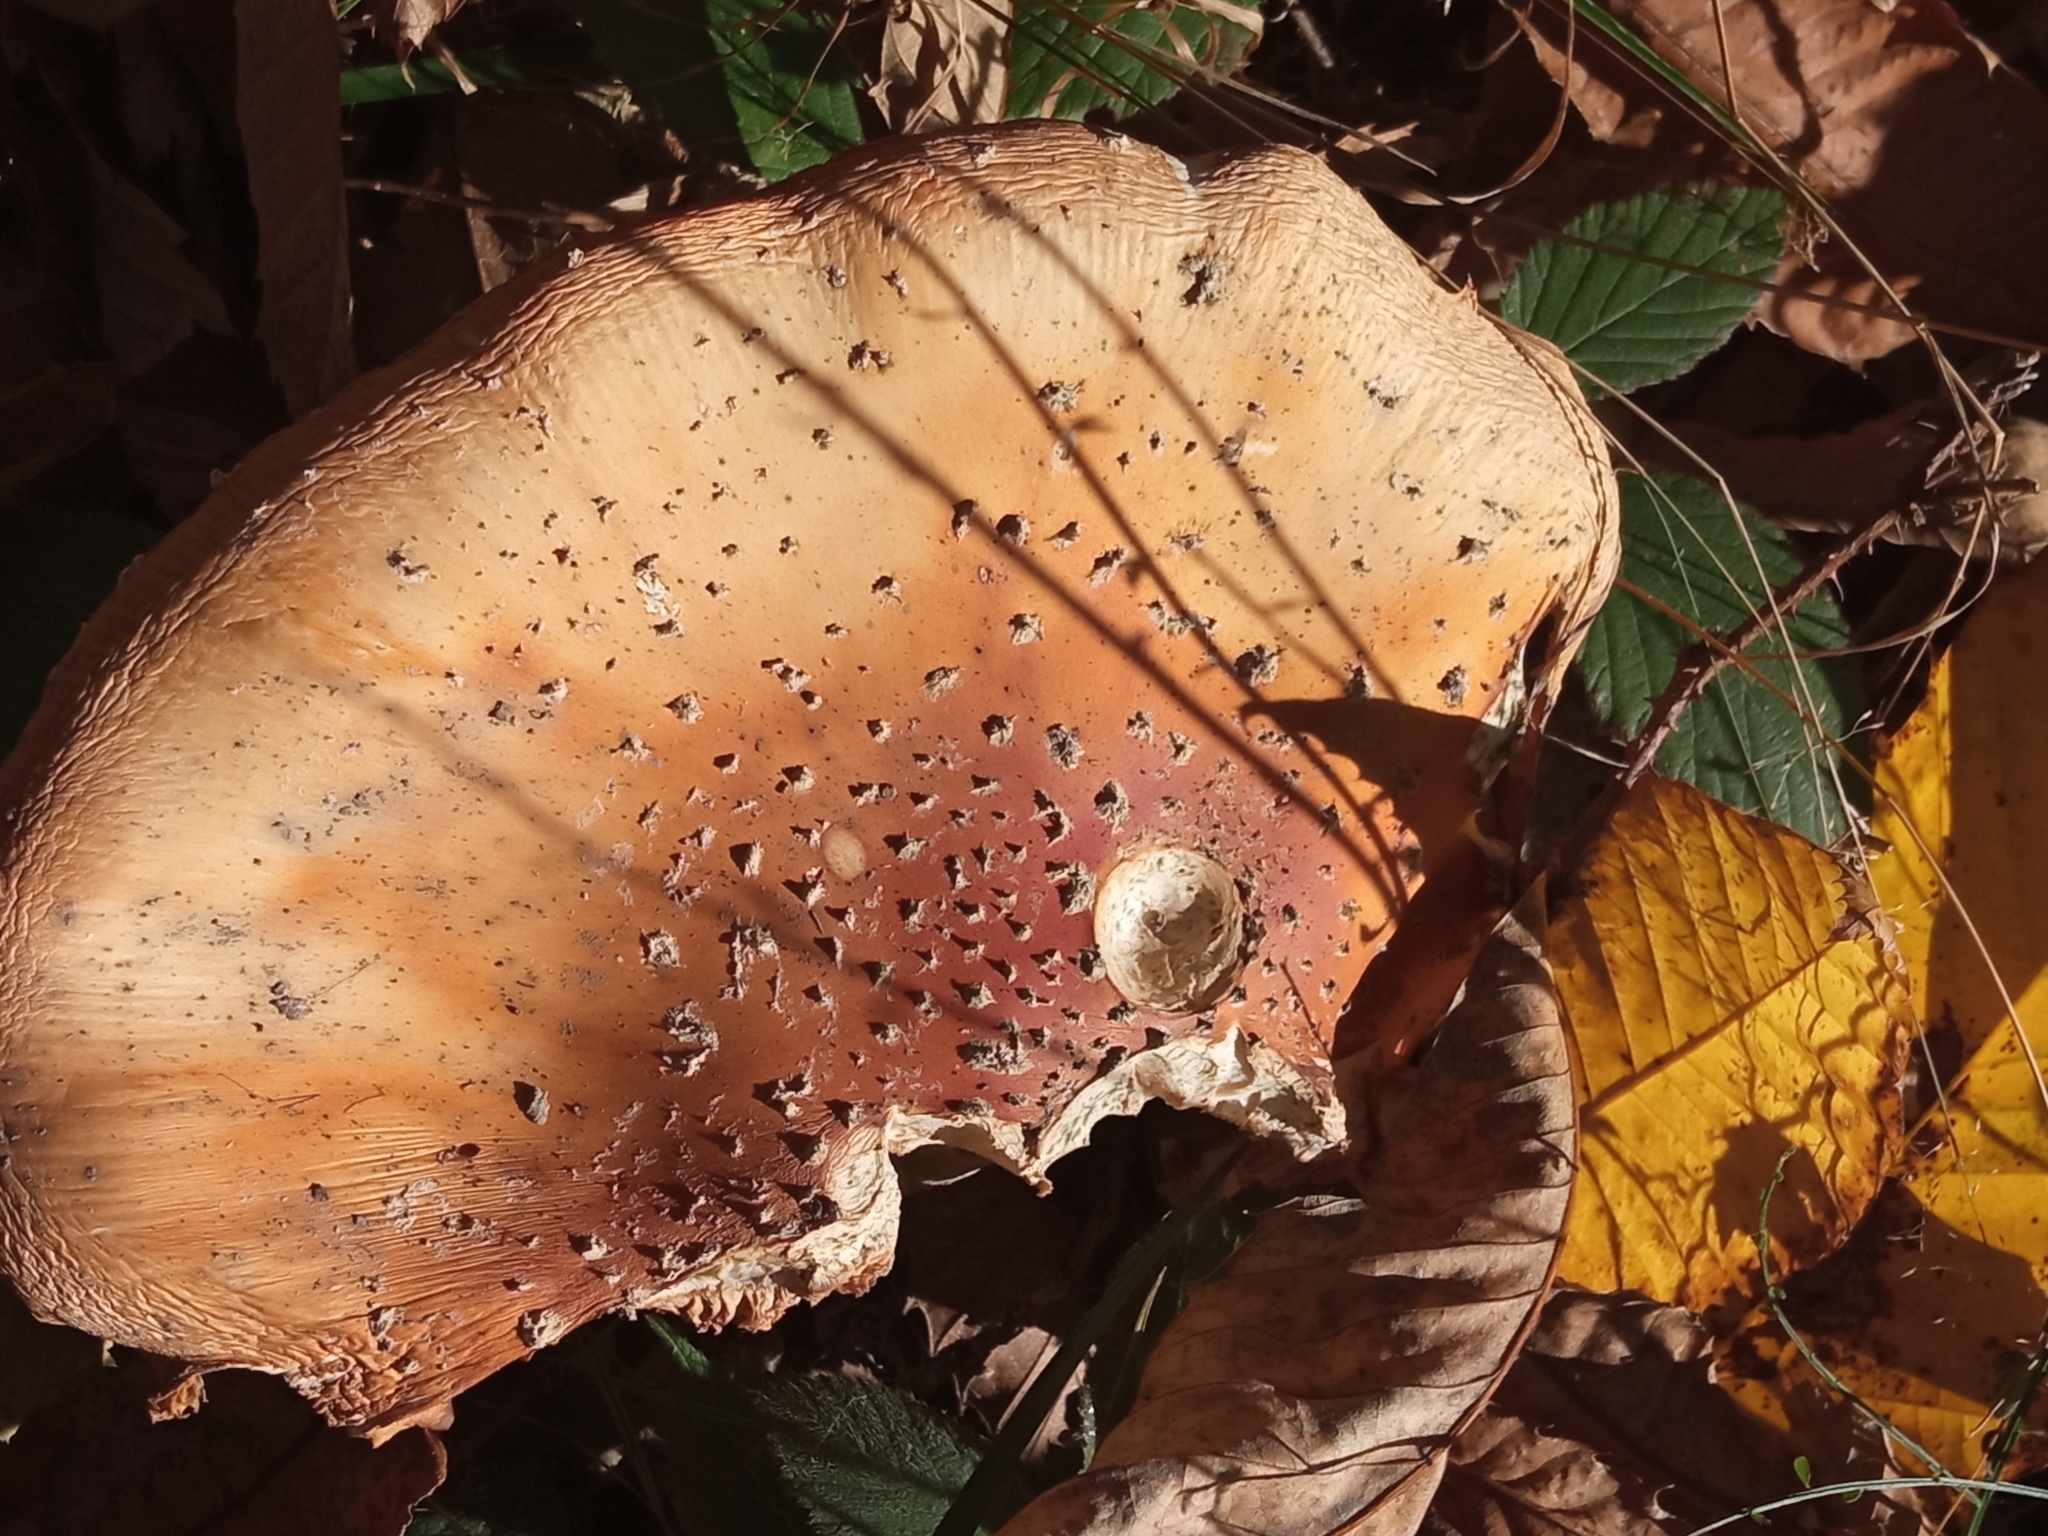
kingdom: Fungi
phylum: Basidiomycota
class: Agaricomycetes
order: Agaricales
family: Amanitaceae
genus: Amanita
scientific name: Amanita muscaria
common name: Fly agaric
